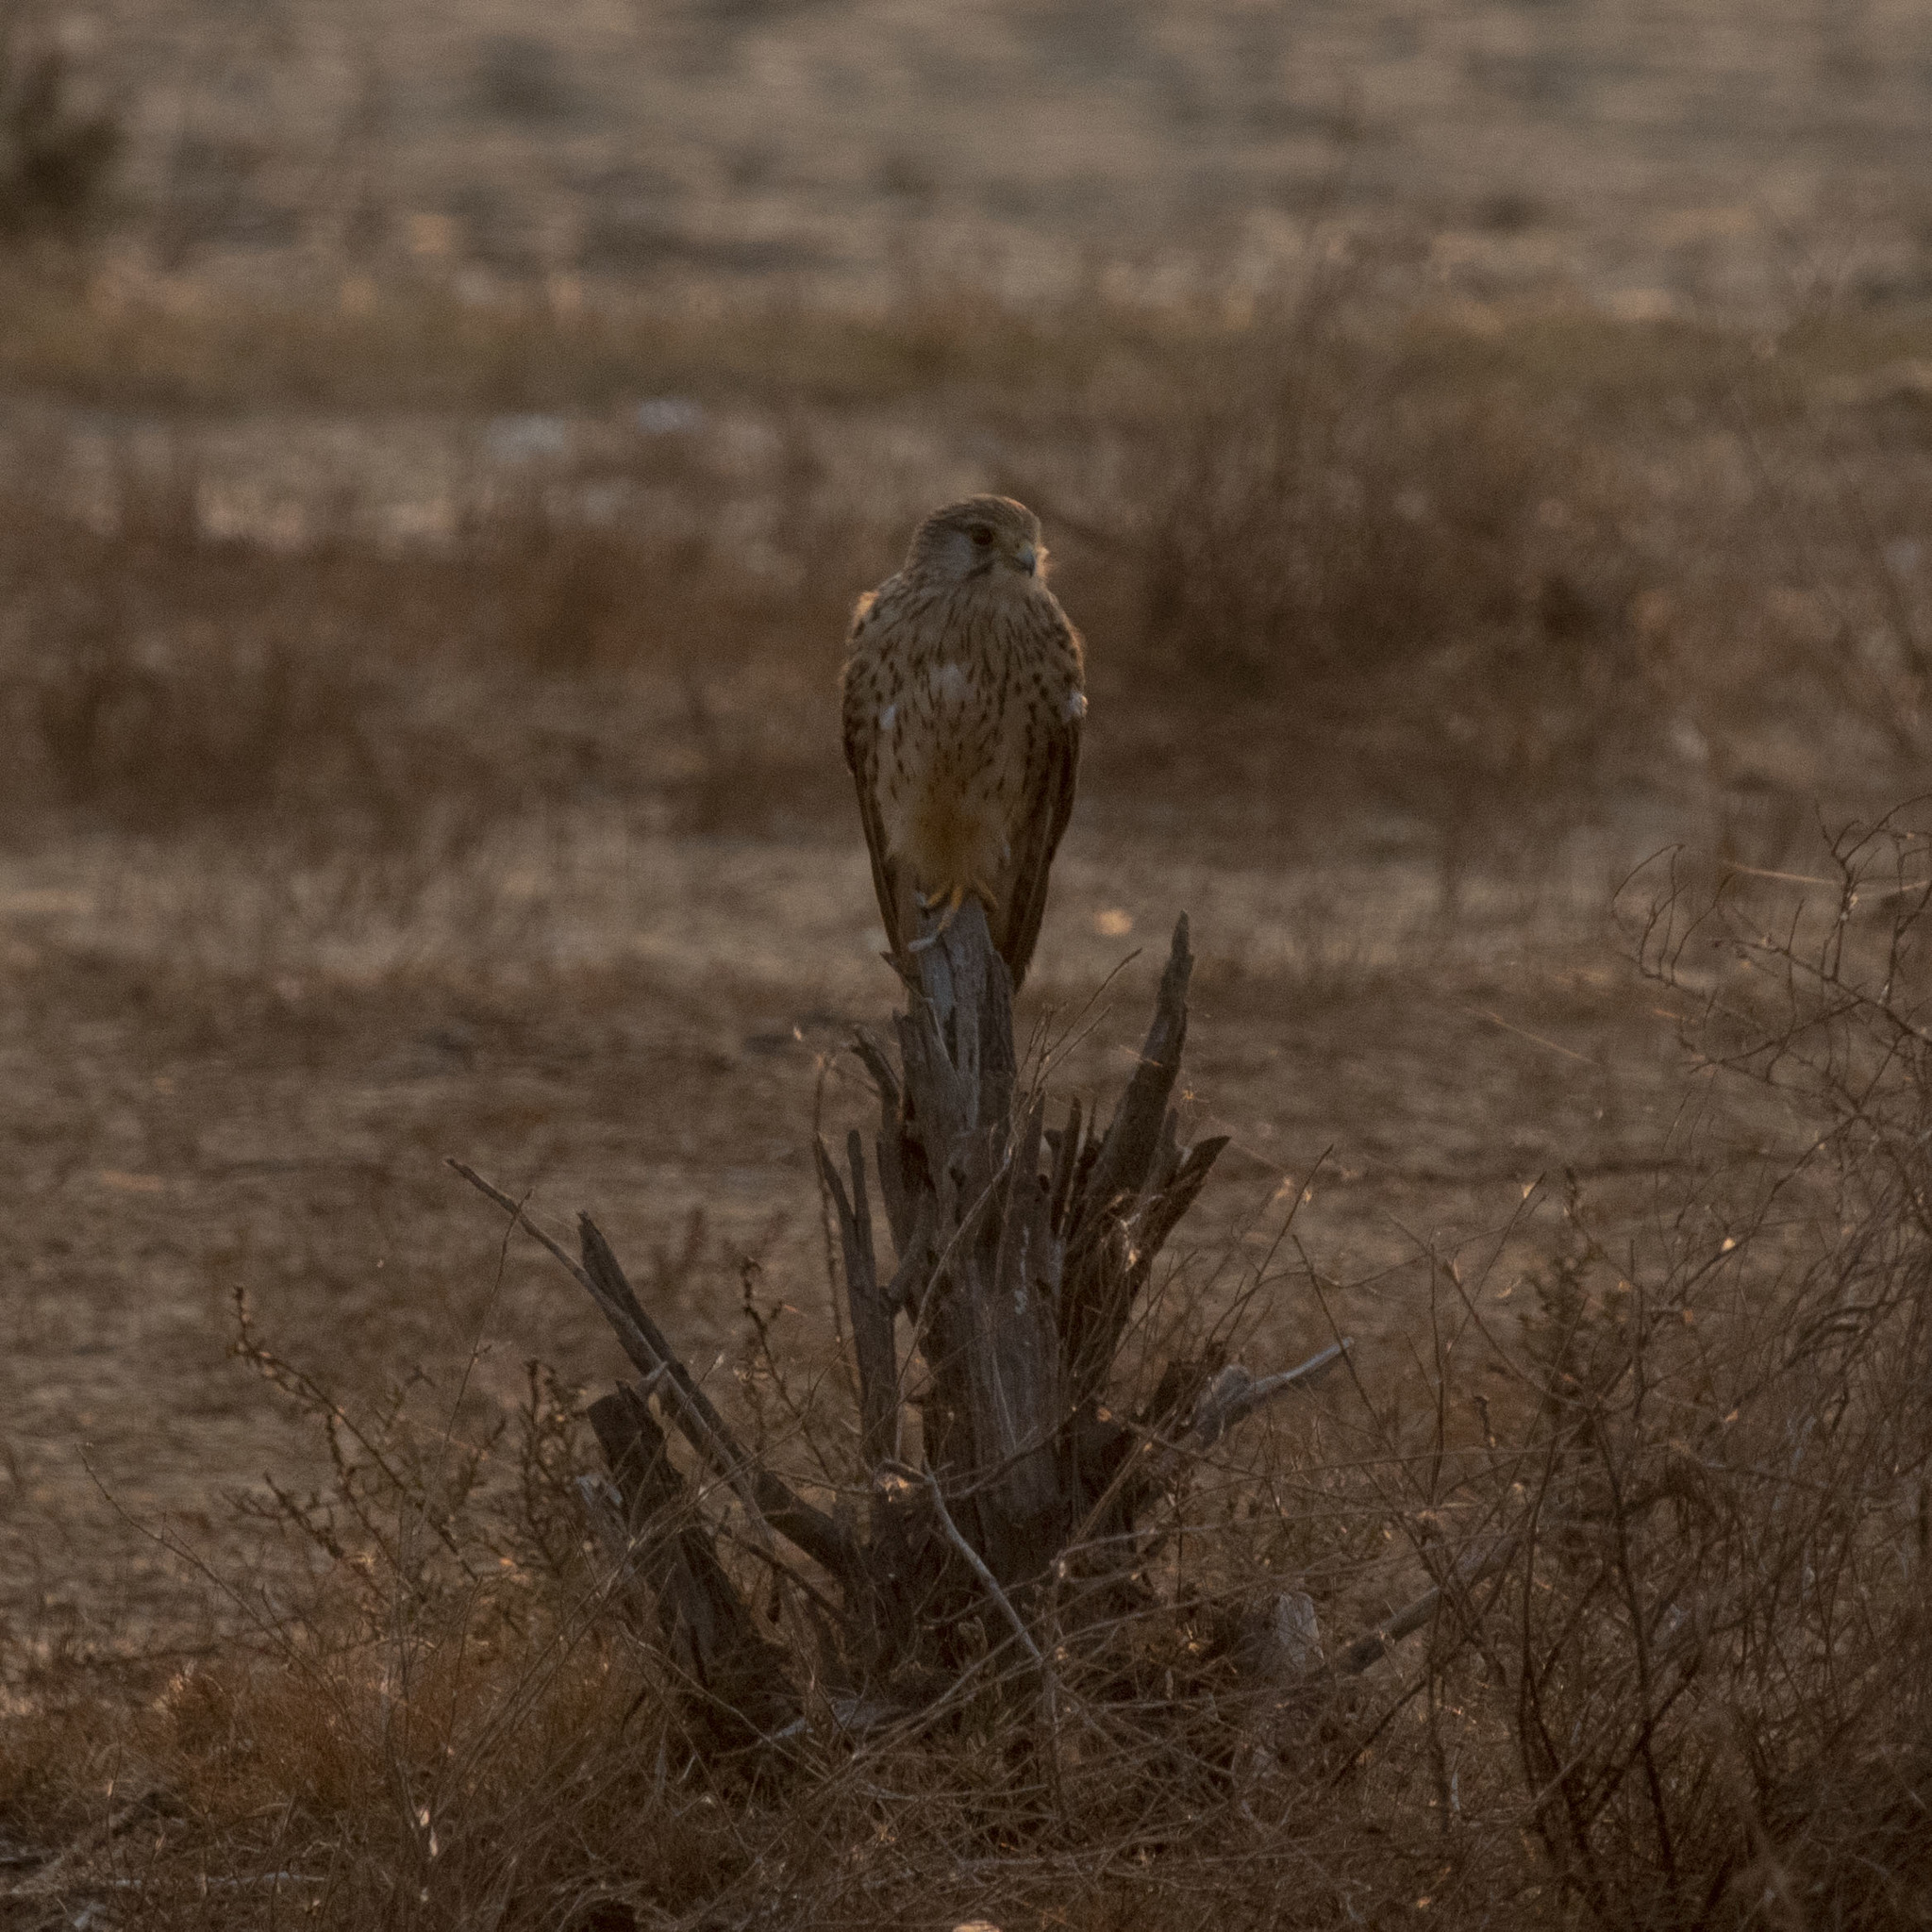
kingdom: Animalia
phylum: Chordata
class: Aves
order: Falconiformes
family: Falconidae
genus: Falco
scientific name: Falco tinnunculus
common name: Common kestrel
